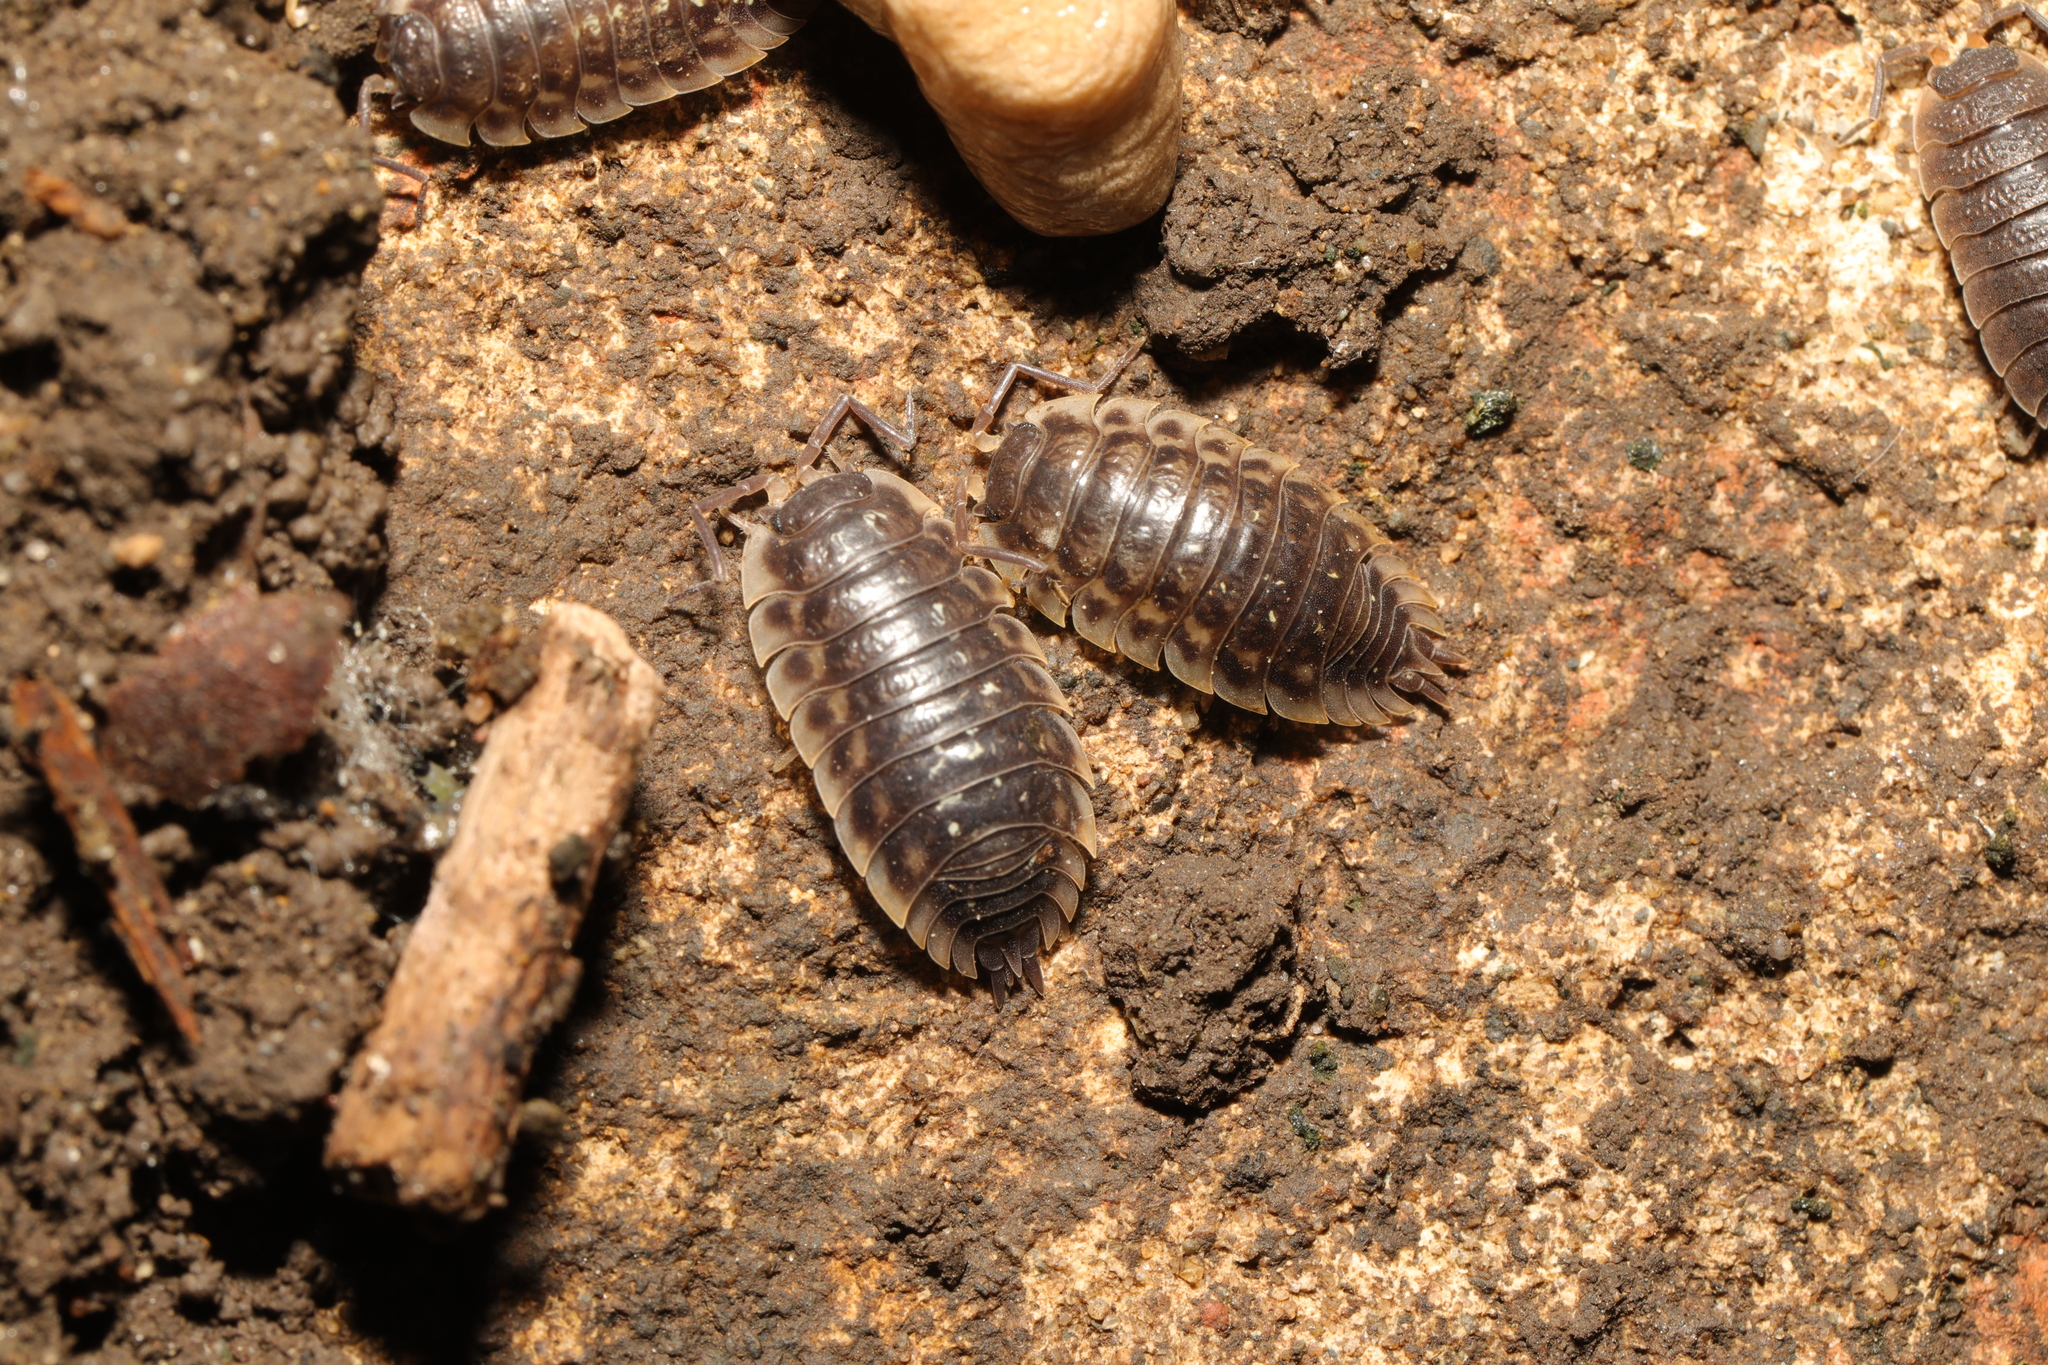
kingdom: Animalia
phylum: Arthropoda
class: Malacostraca
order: Isopoda
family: Oniscidae
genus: Oniscus
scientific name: Oniscus asellus
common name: Common shiny woodlouse
